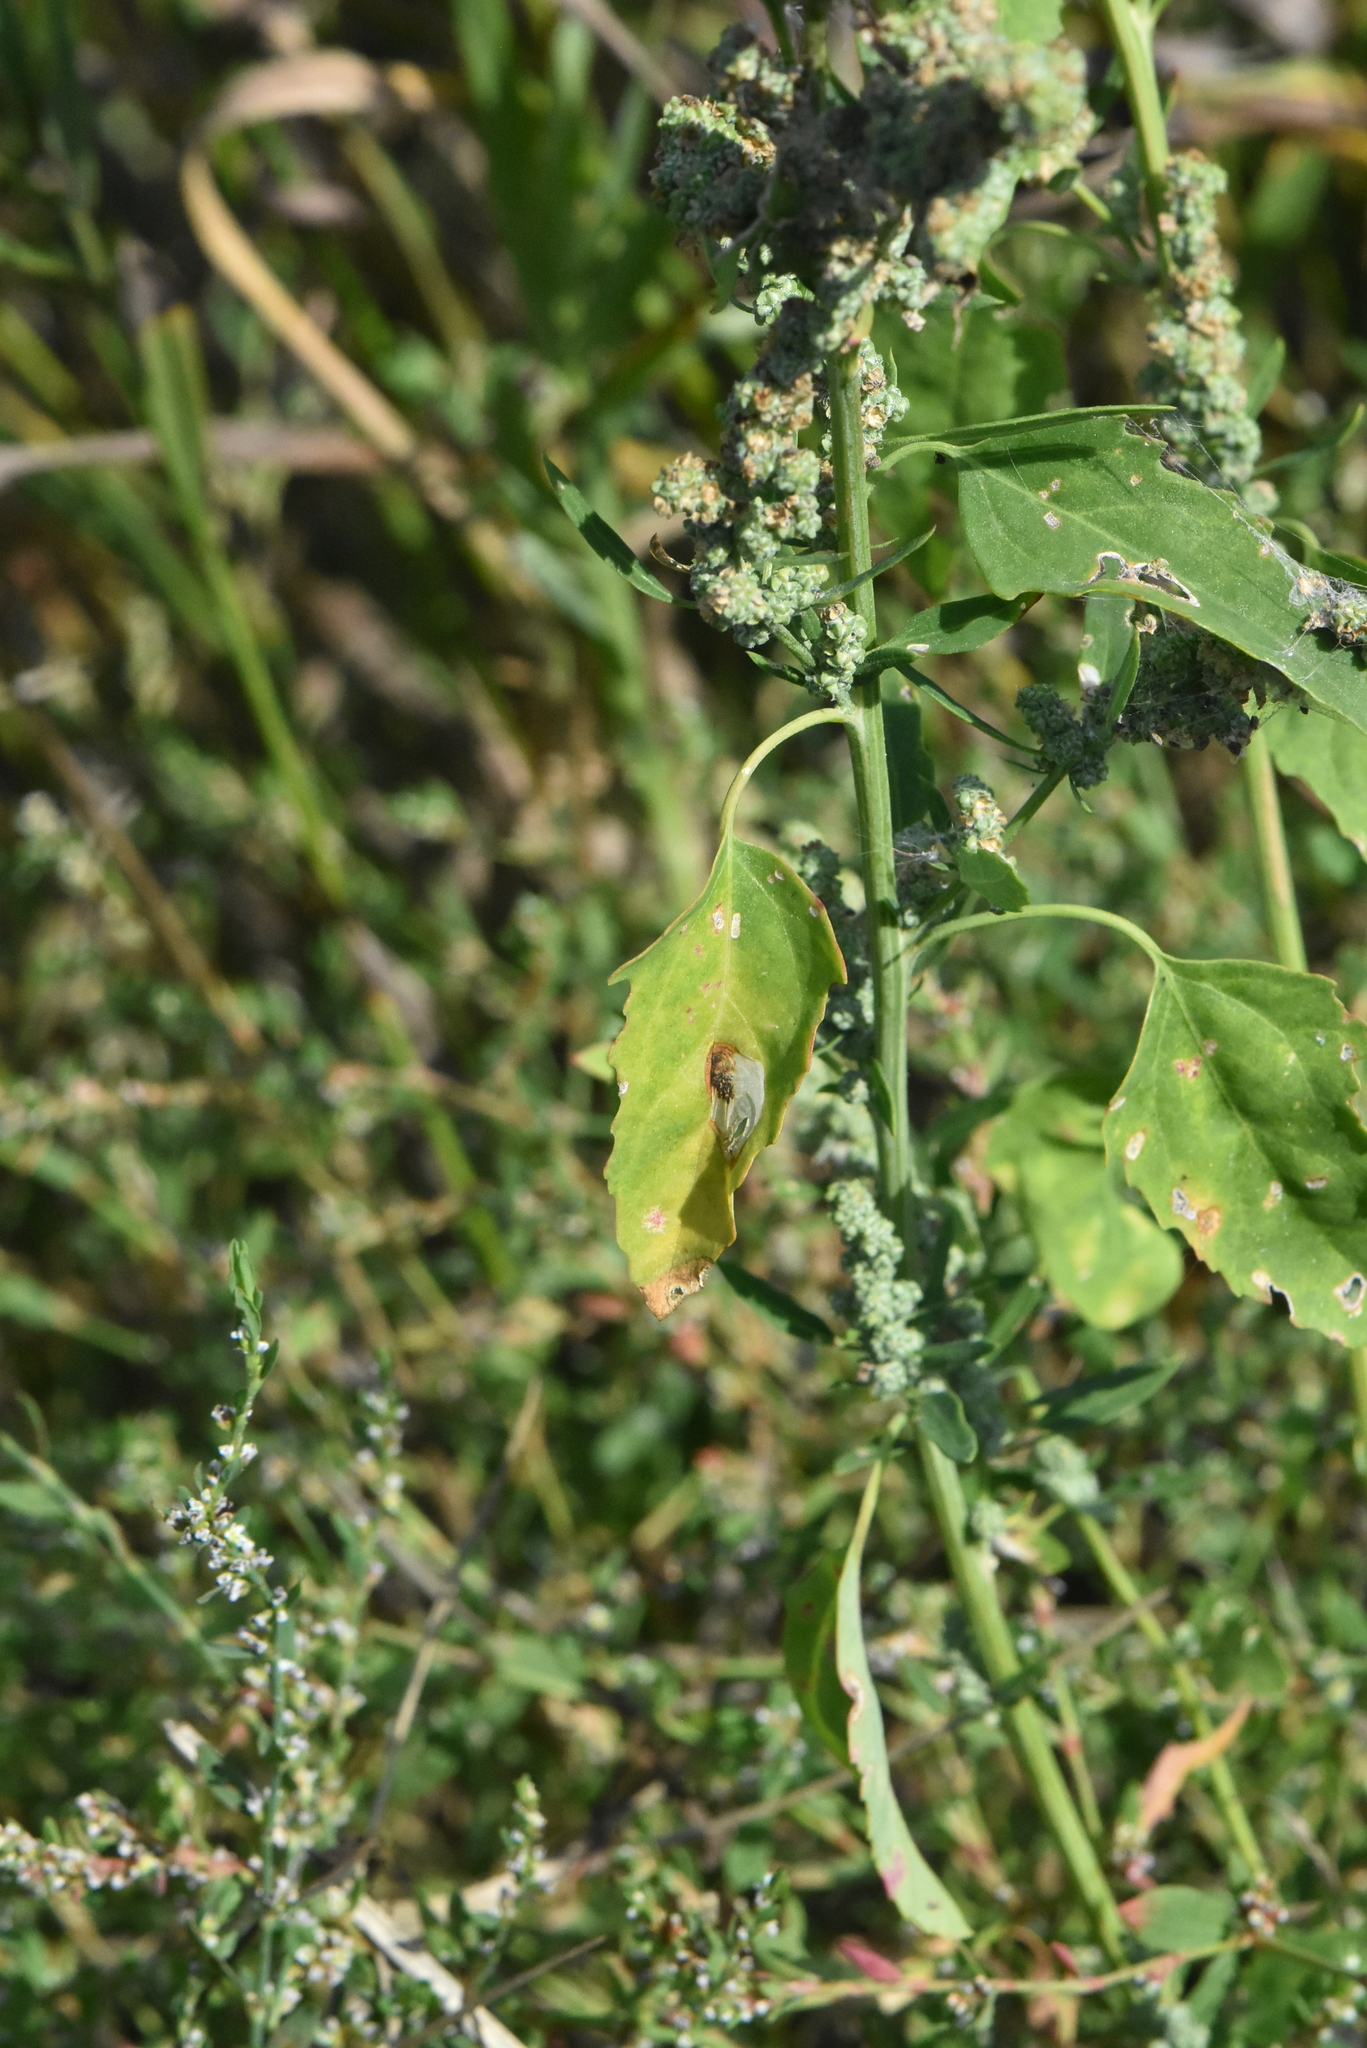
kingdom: Plantae
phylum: Tracheophyta
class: Magnoliopsida
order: Caryophyllales
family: Amaranthaceae
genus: Chenopodium
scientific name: Chenopodium album
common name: Fat-hen
